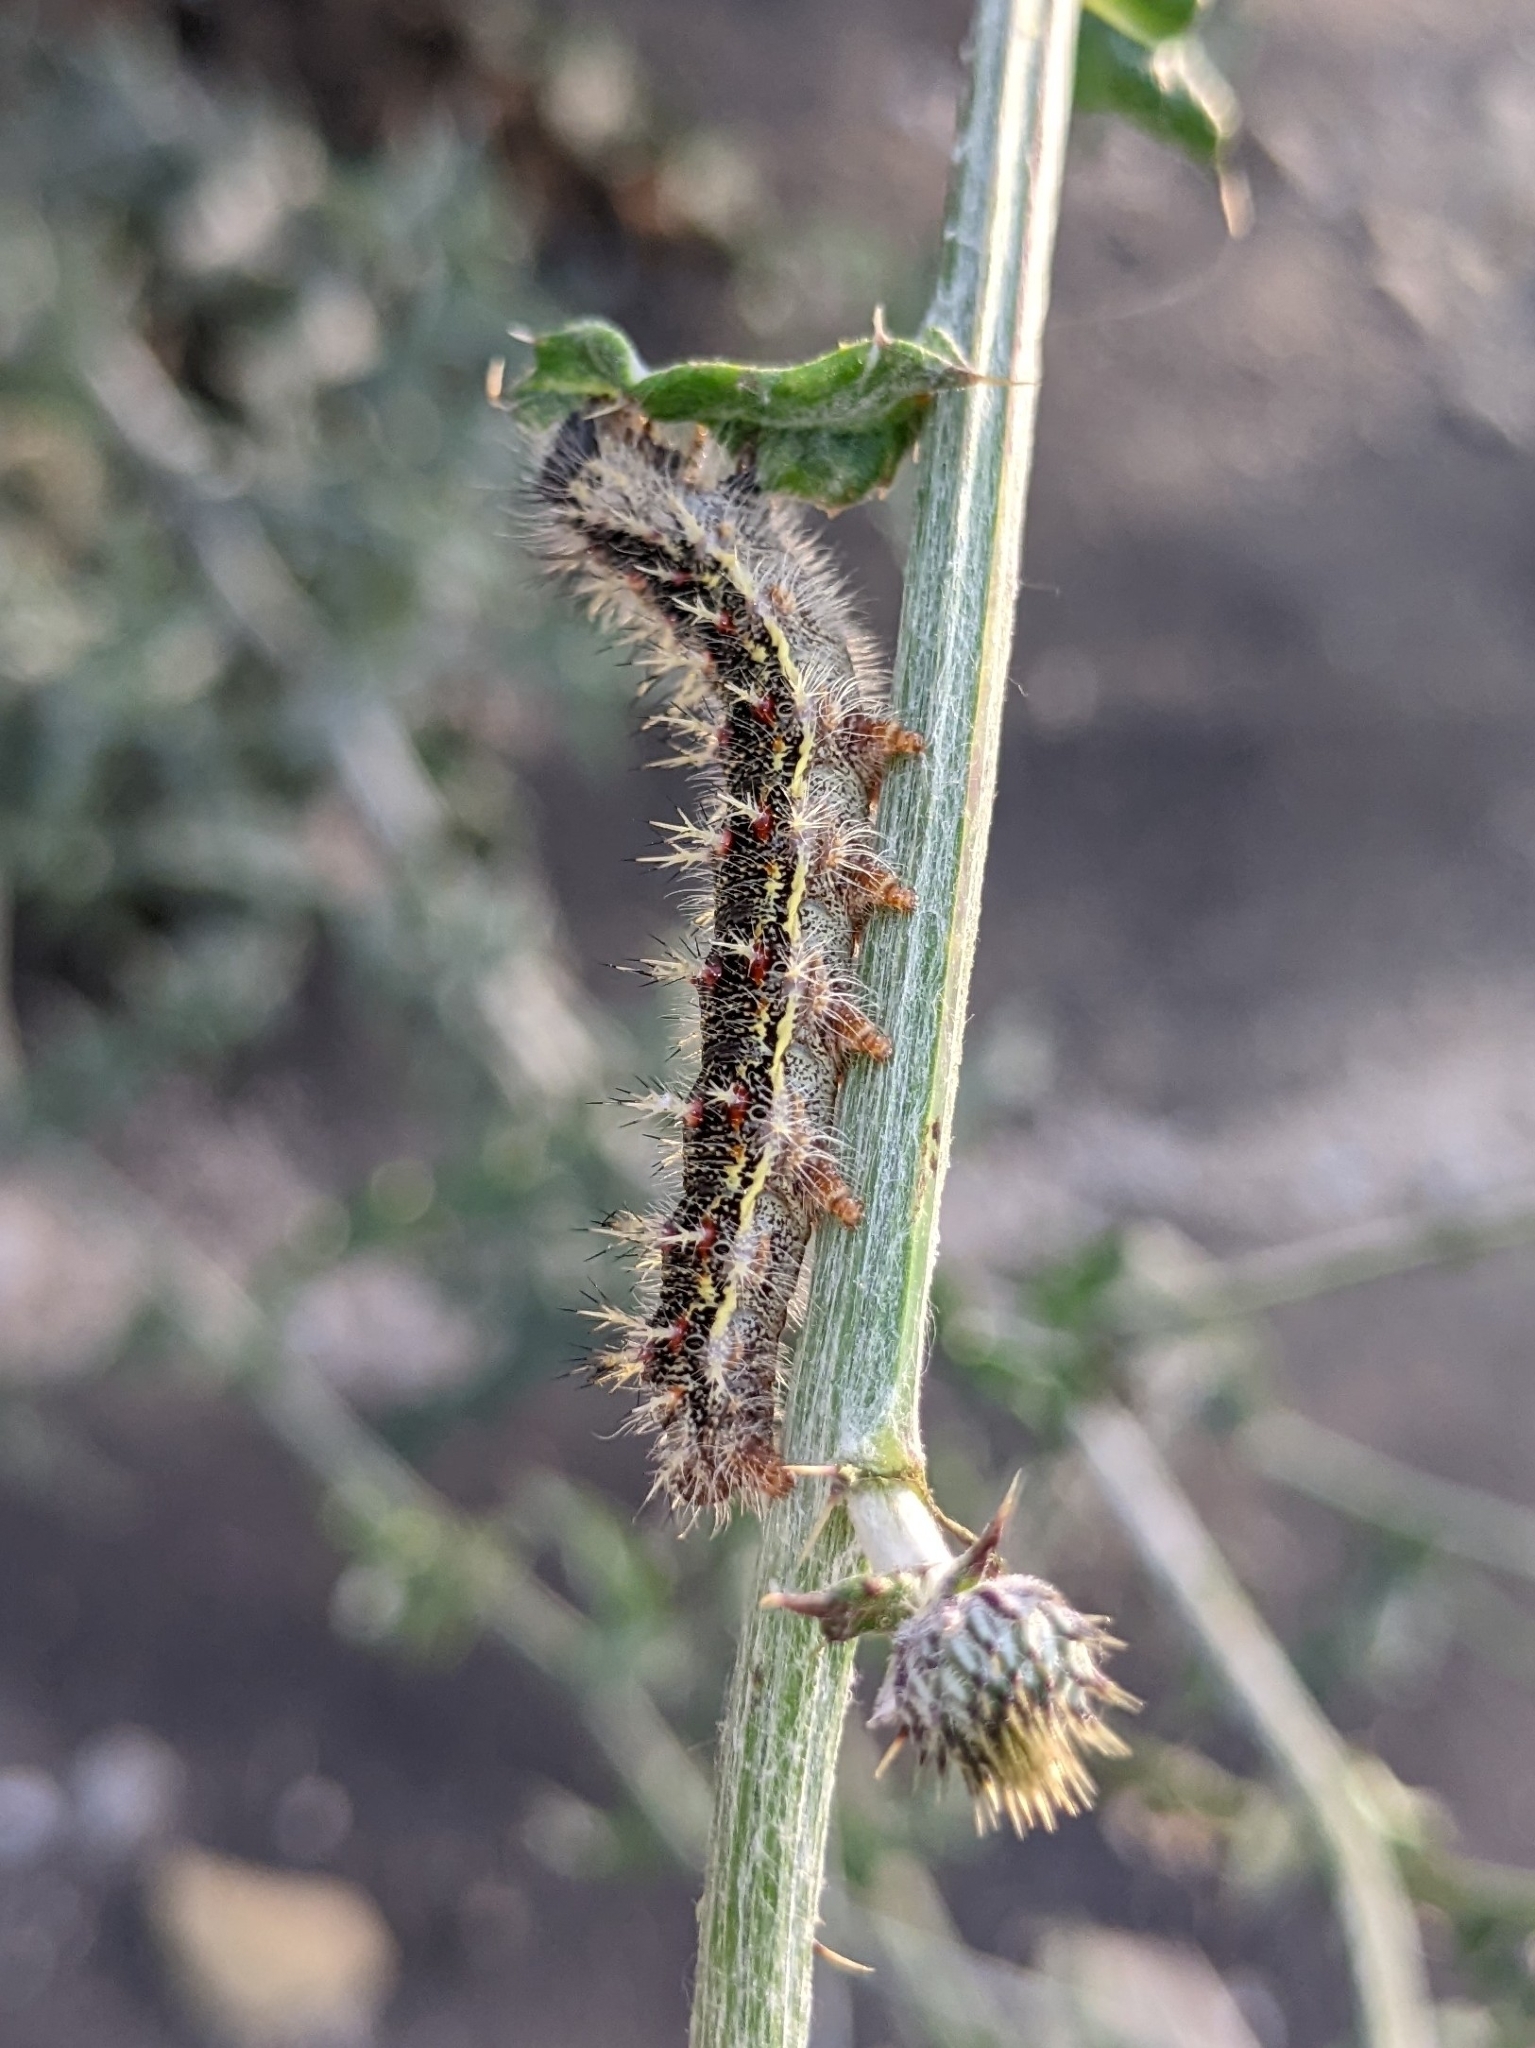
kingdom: Animalia
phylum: Arthropoda
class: Insecta
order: Lepidoptera
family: Nymphalidae
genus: Vanessa
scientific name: Vanessa cardui
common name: Painted lady
